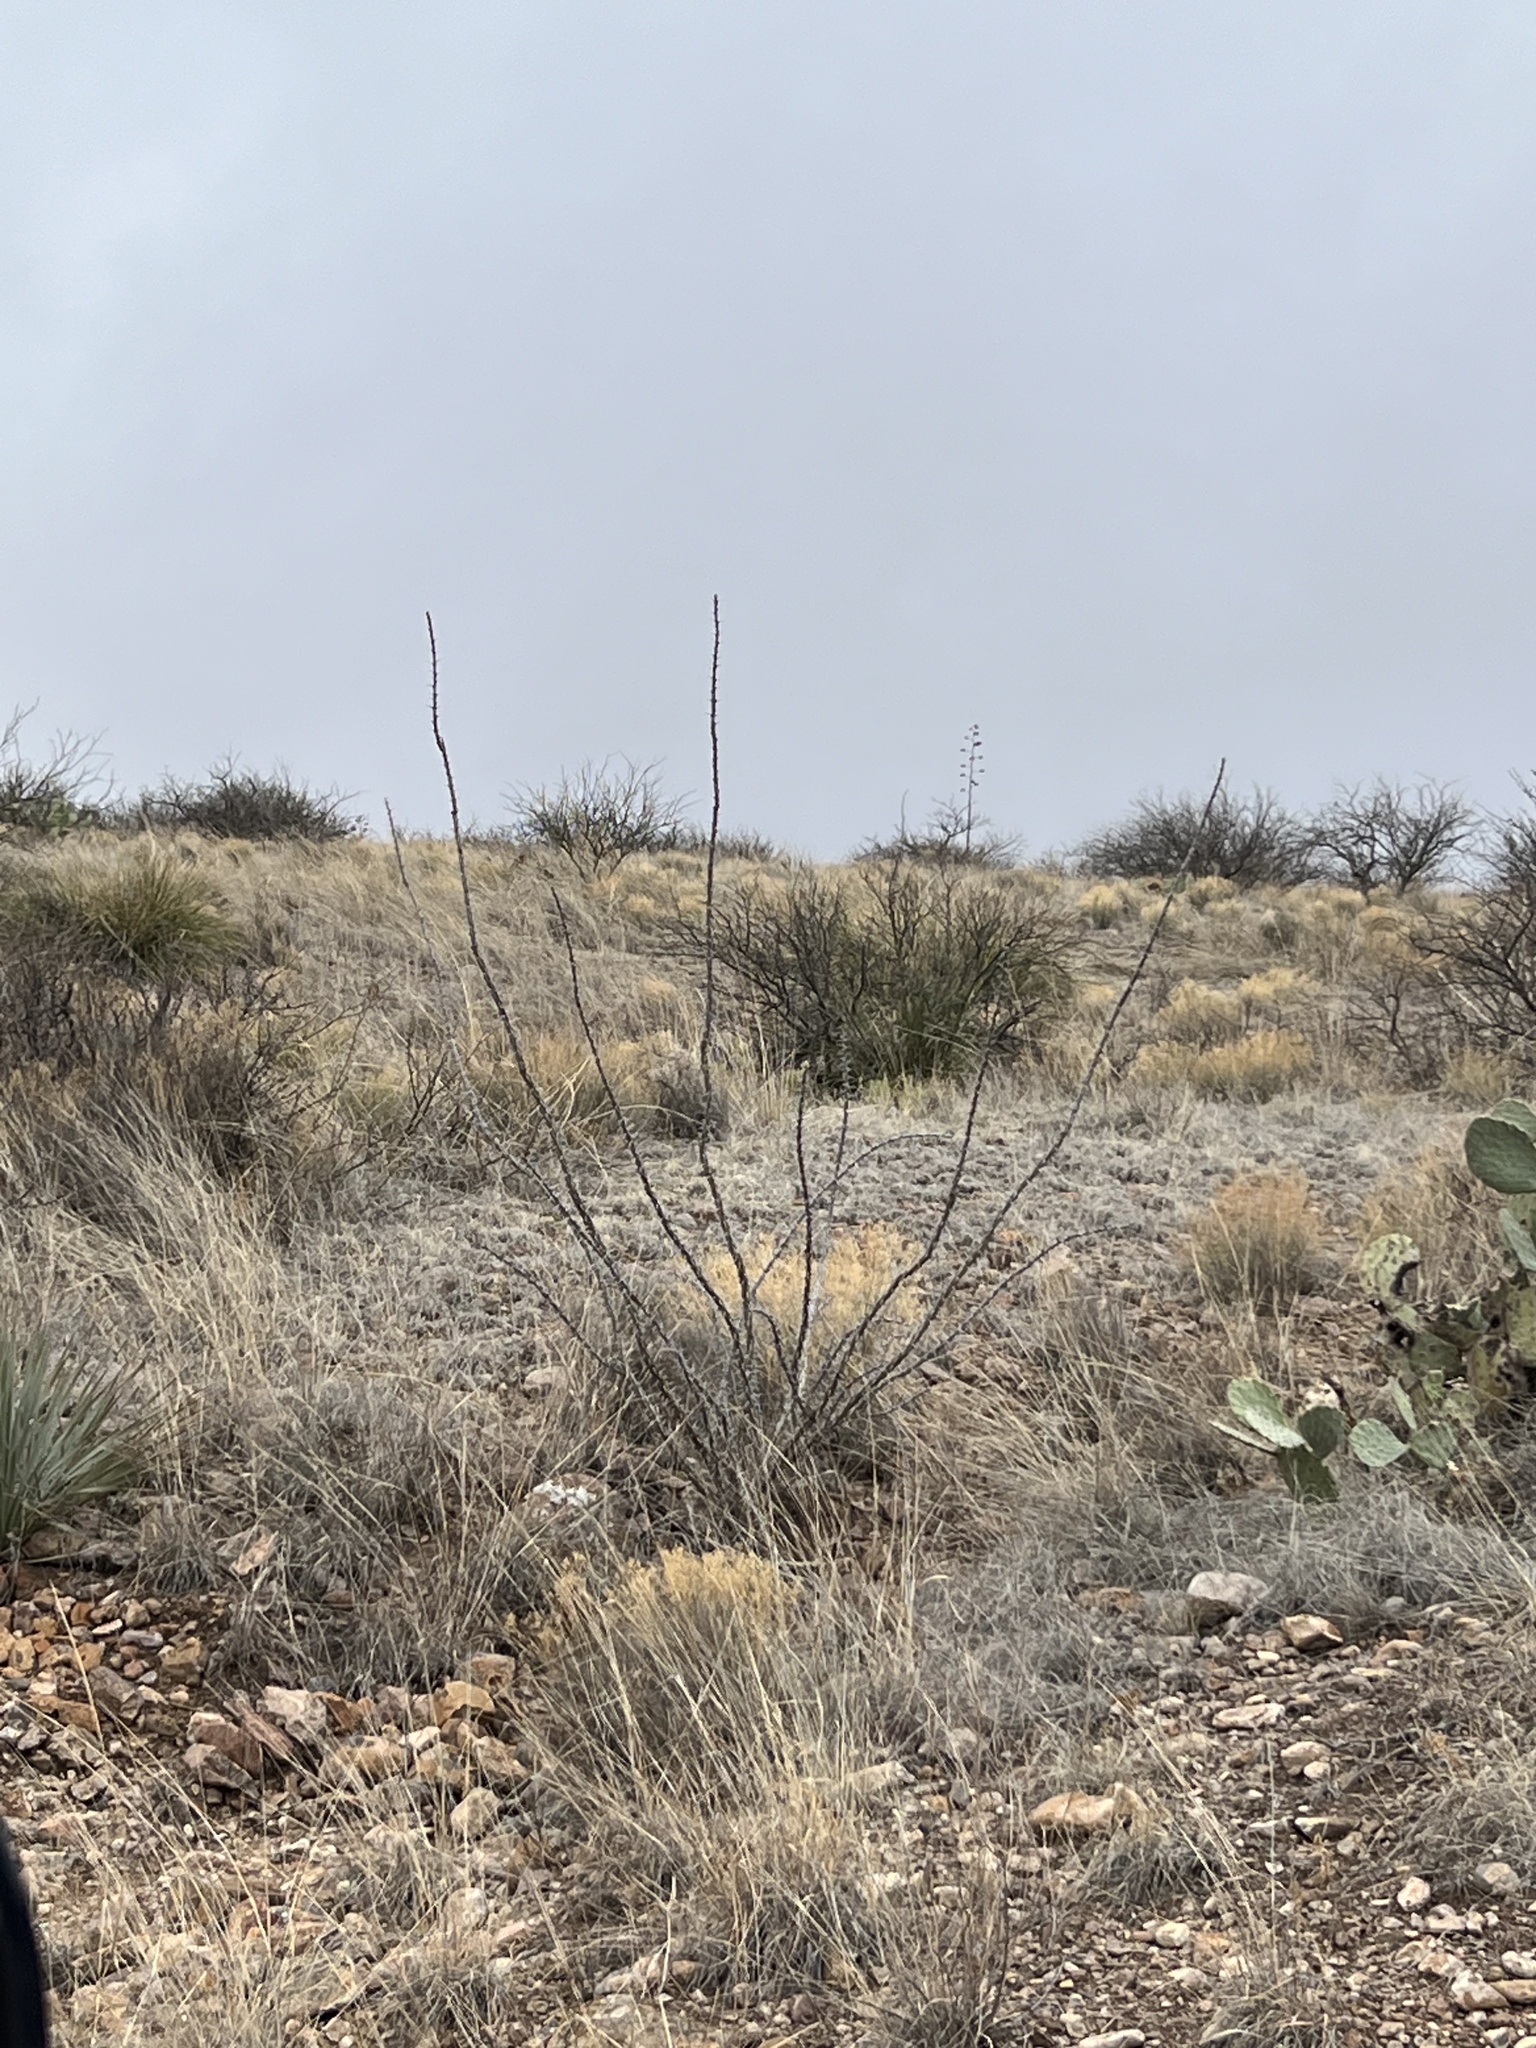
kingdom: Plantae
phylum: Tracheophyta
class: Magnoliopsida
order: Ericales
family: Fouquieriaceae
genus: Fouquieria
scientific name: Fouquieria splendens
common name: Vine-cactus
